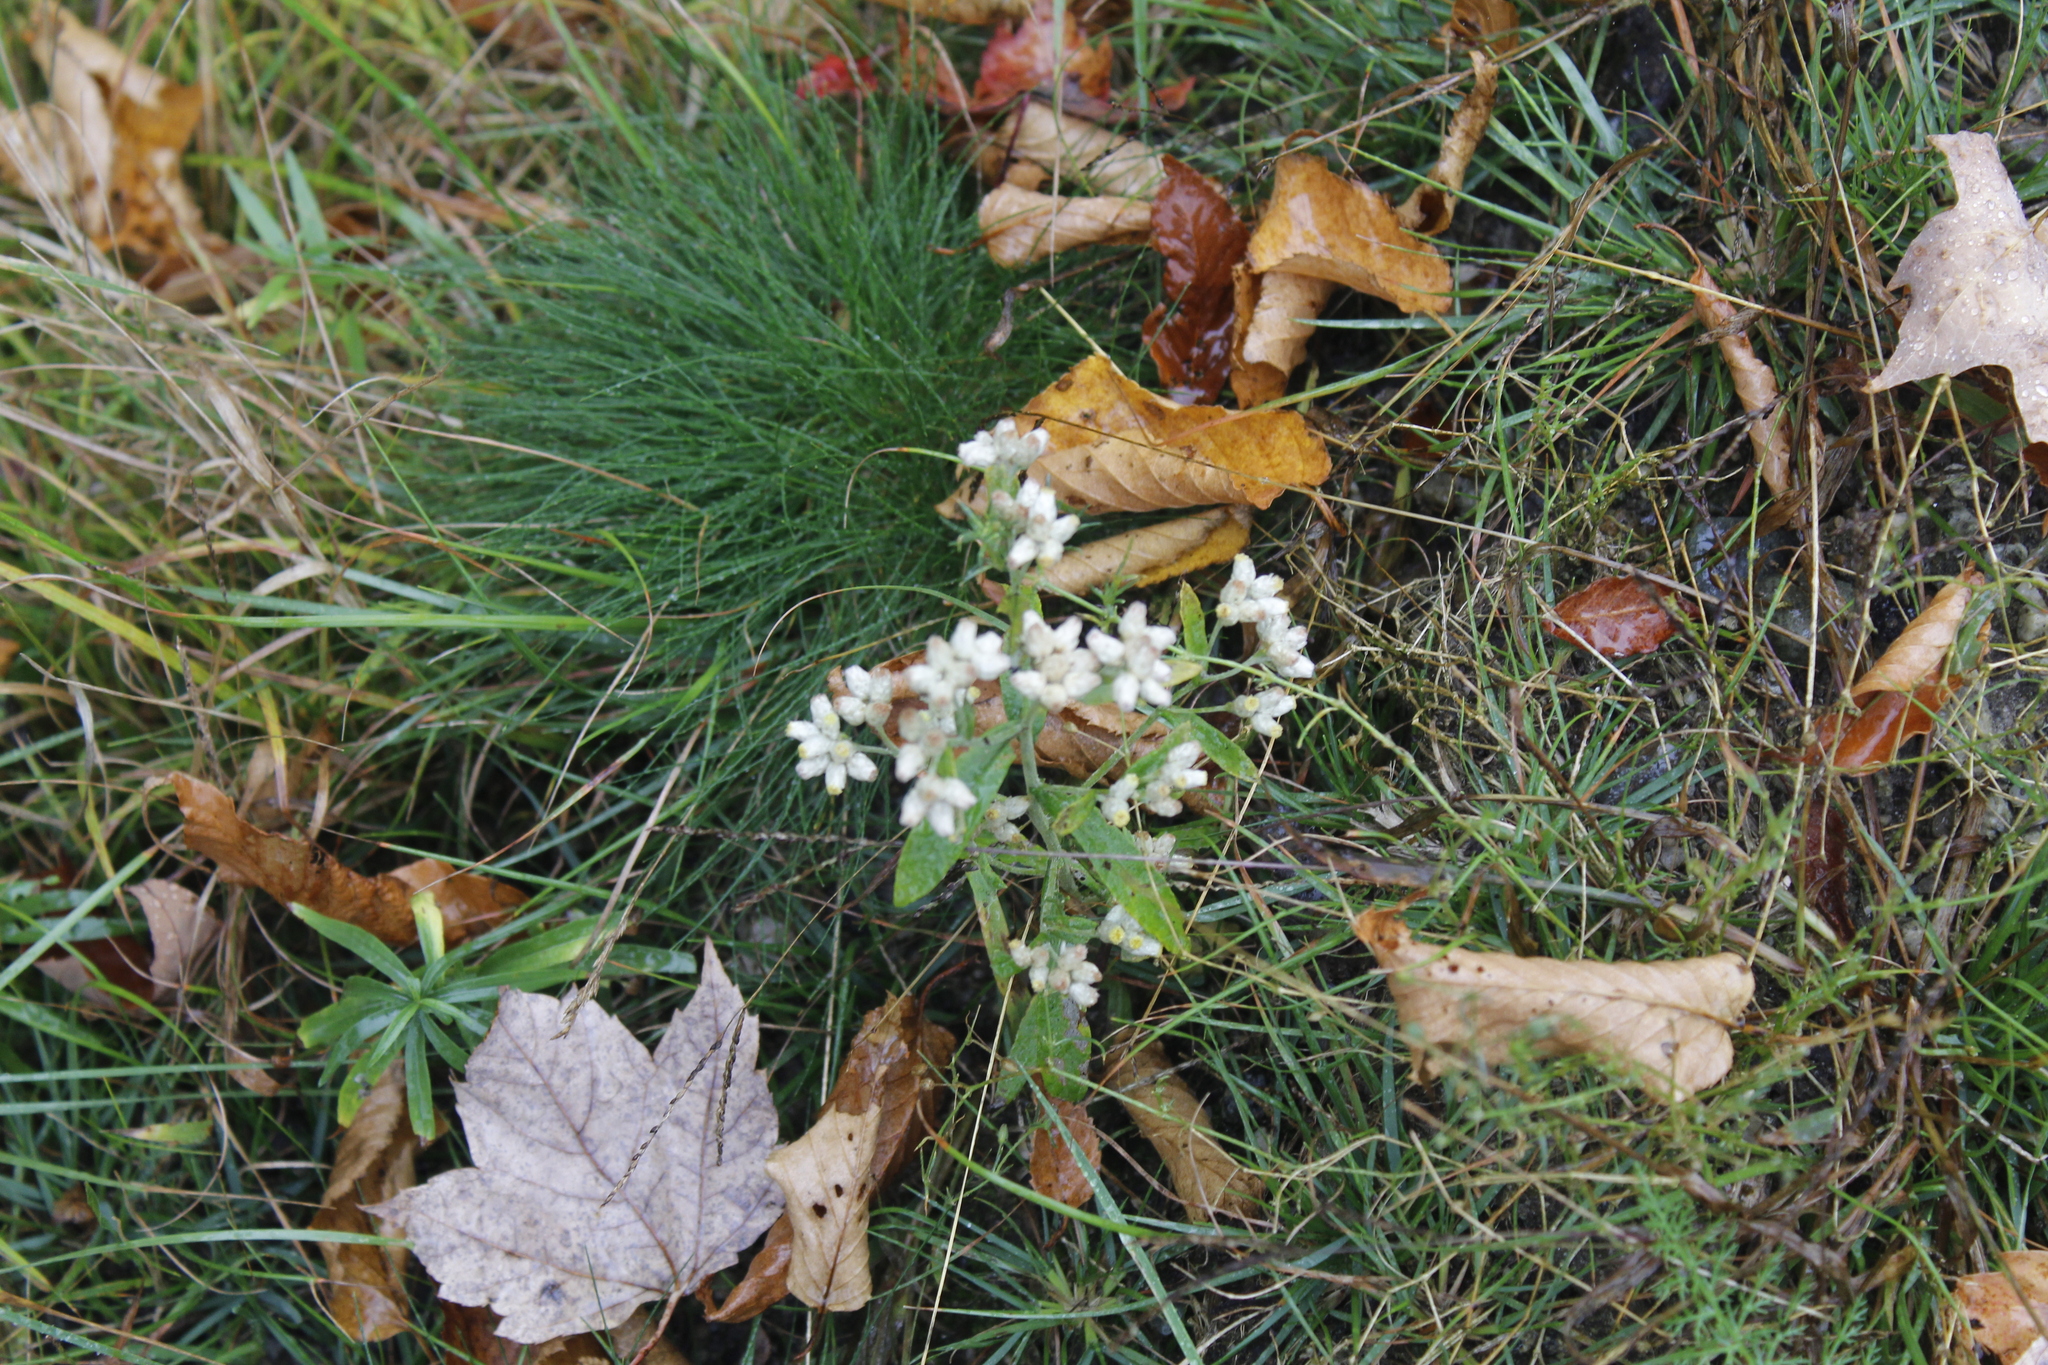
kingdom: Plantae
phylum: Tracheophyta
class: Magnoliopsida
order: Asterales
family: Asteraceae
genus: Pseudognaphalium
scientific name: Pseudognaphalium obtusifolium
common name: Eastern rabbit-tobacco
